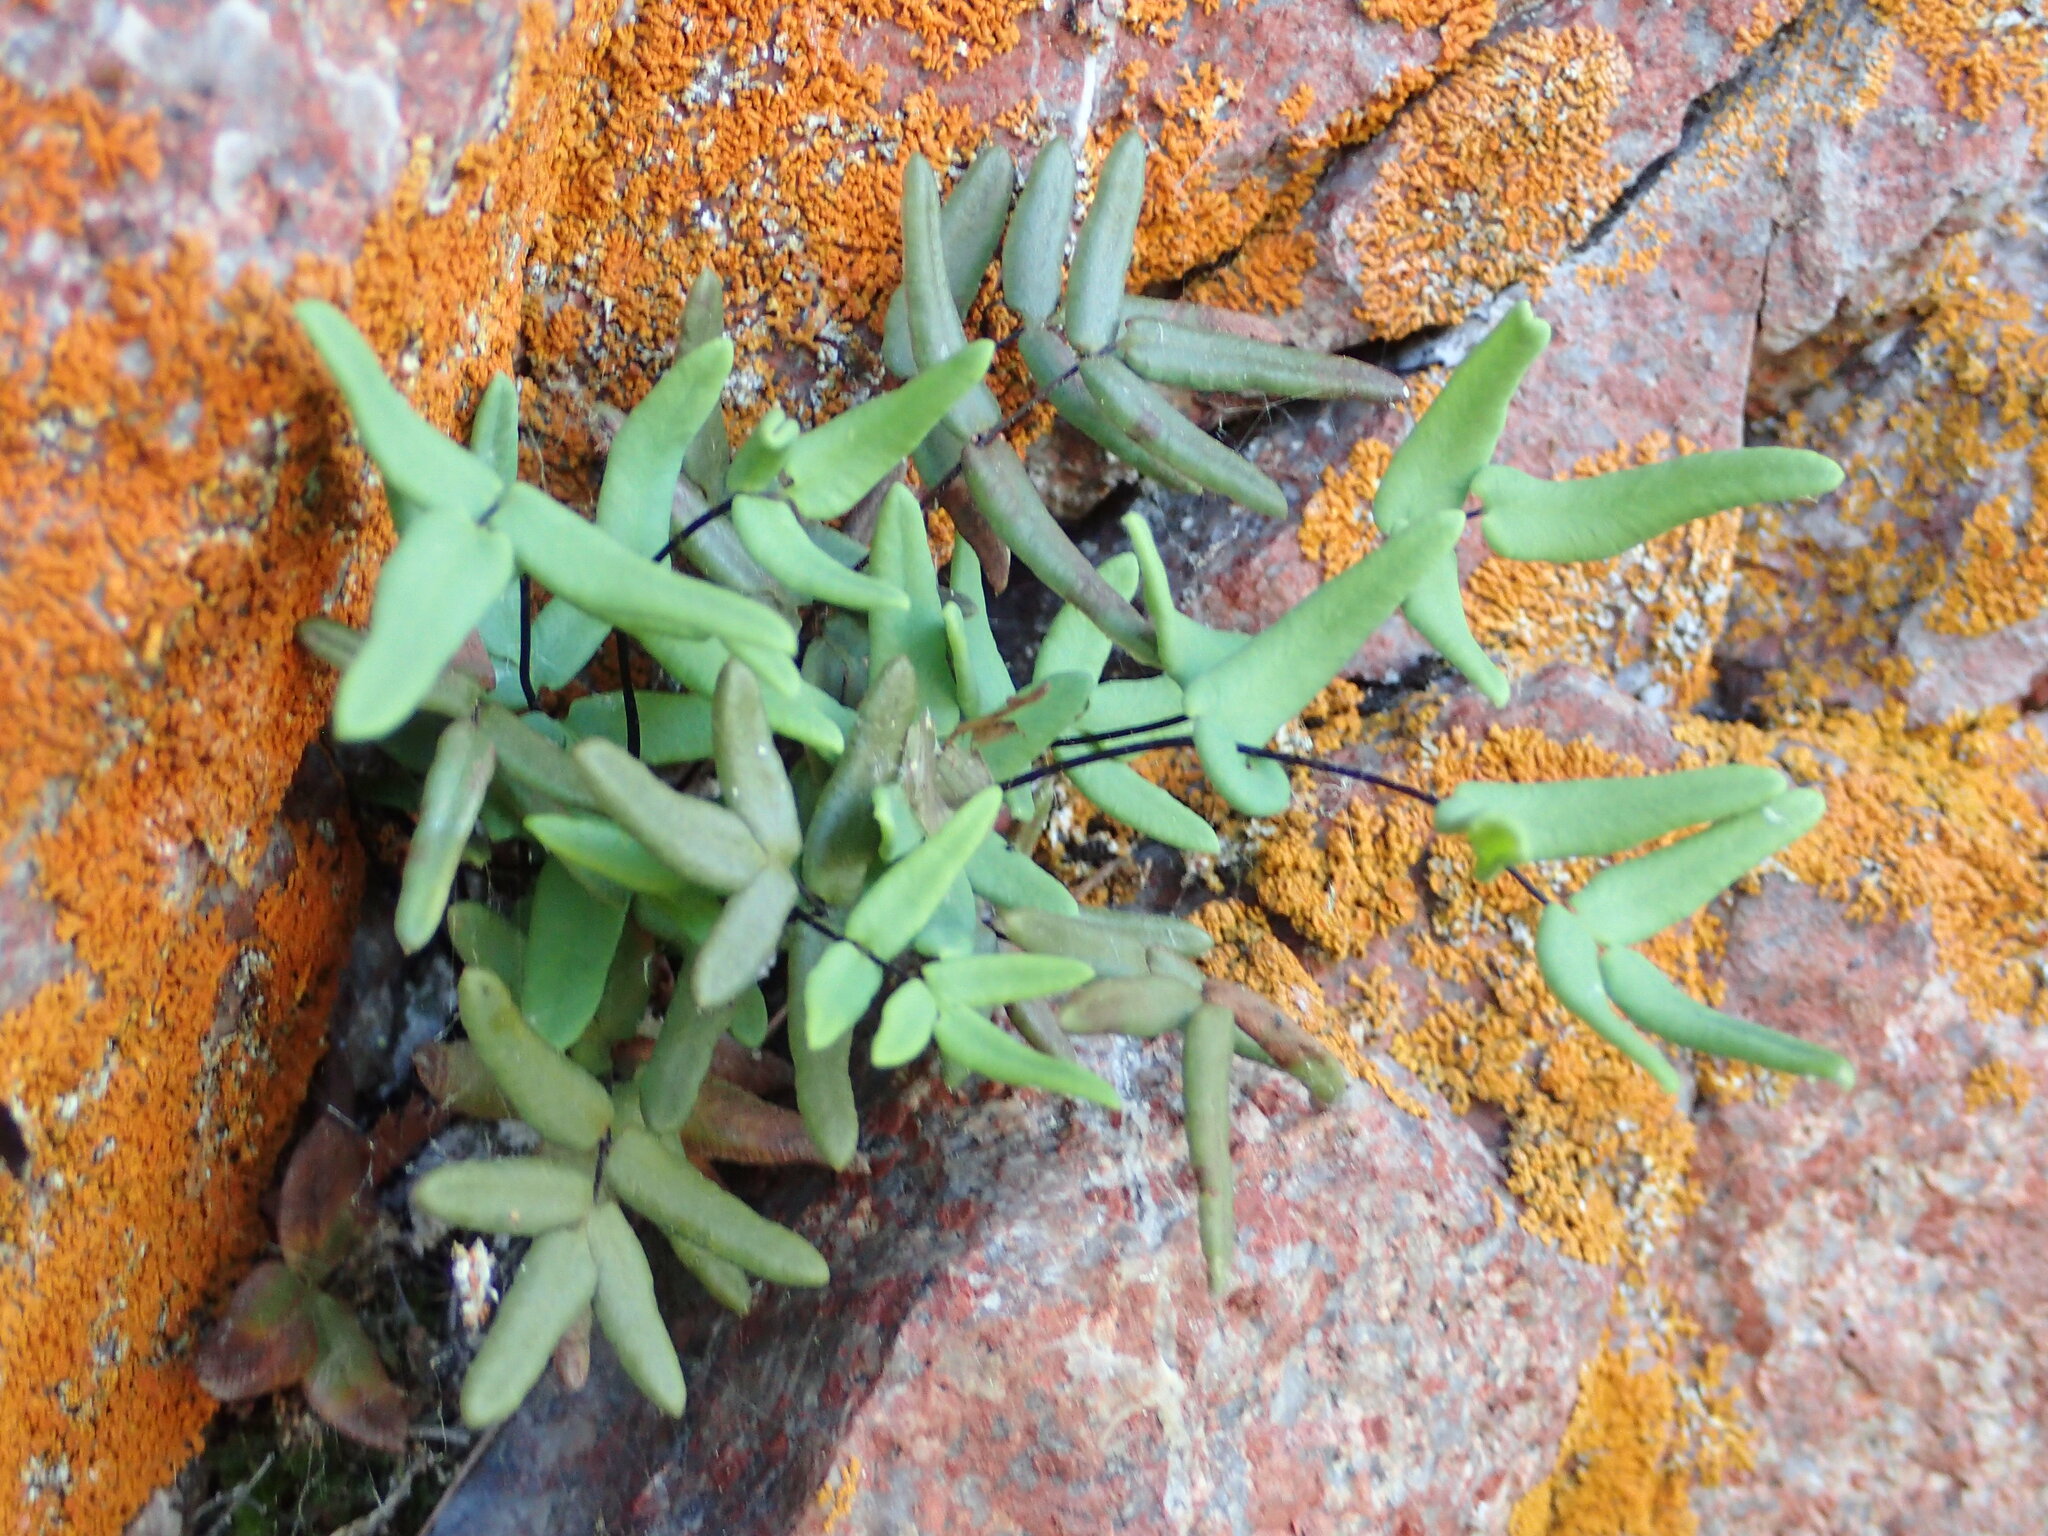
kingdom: Plantae
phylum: Tracheophyta
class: Polypodiopsida
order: Polypodiales
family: Pteridaceae
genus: Pellaea
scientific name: Pellaea glabella
